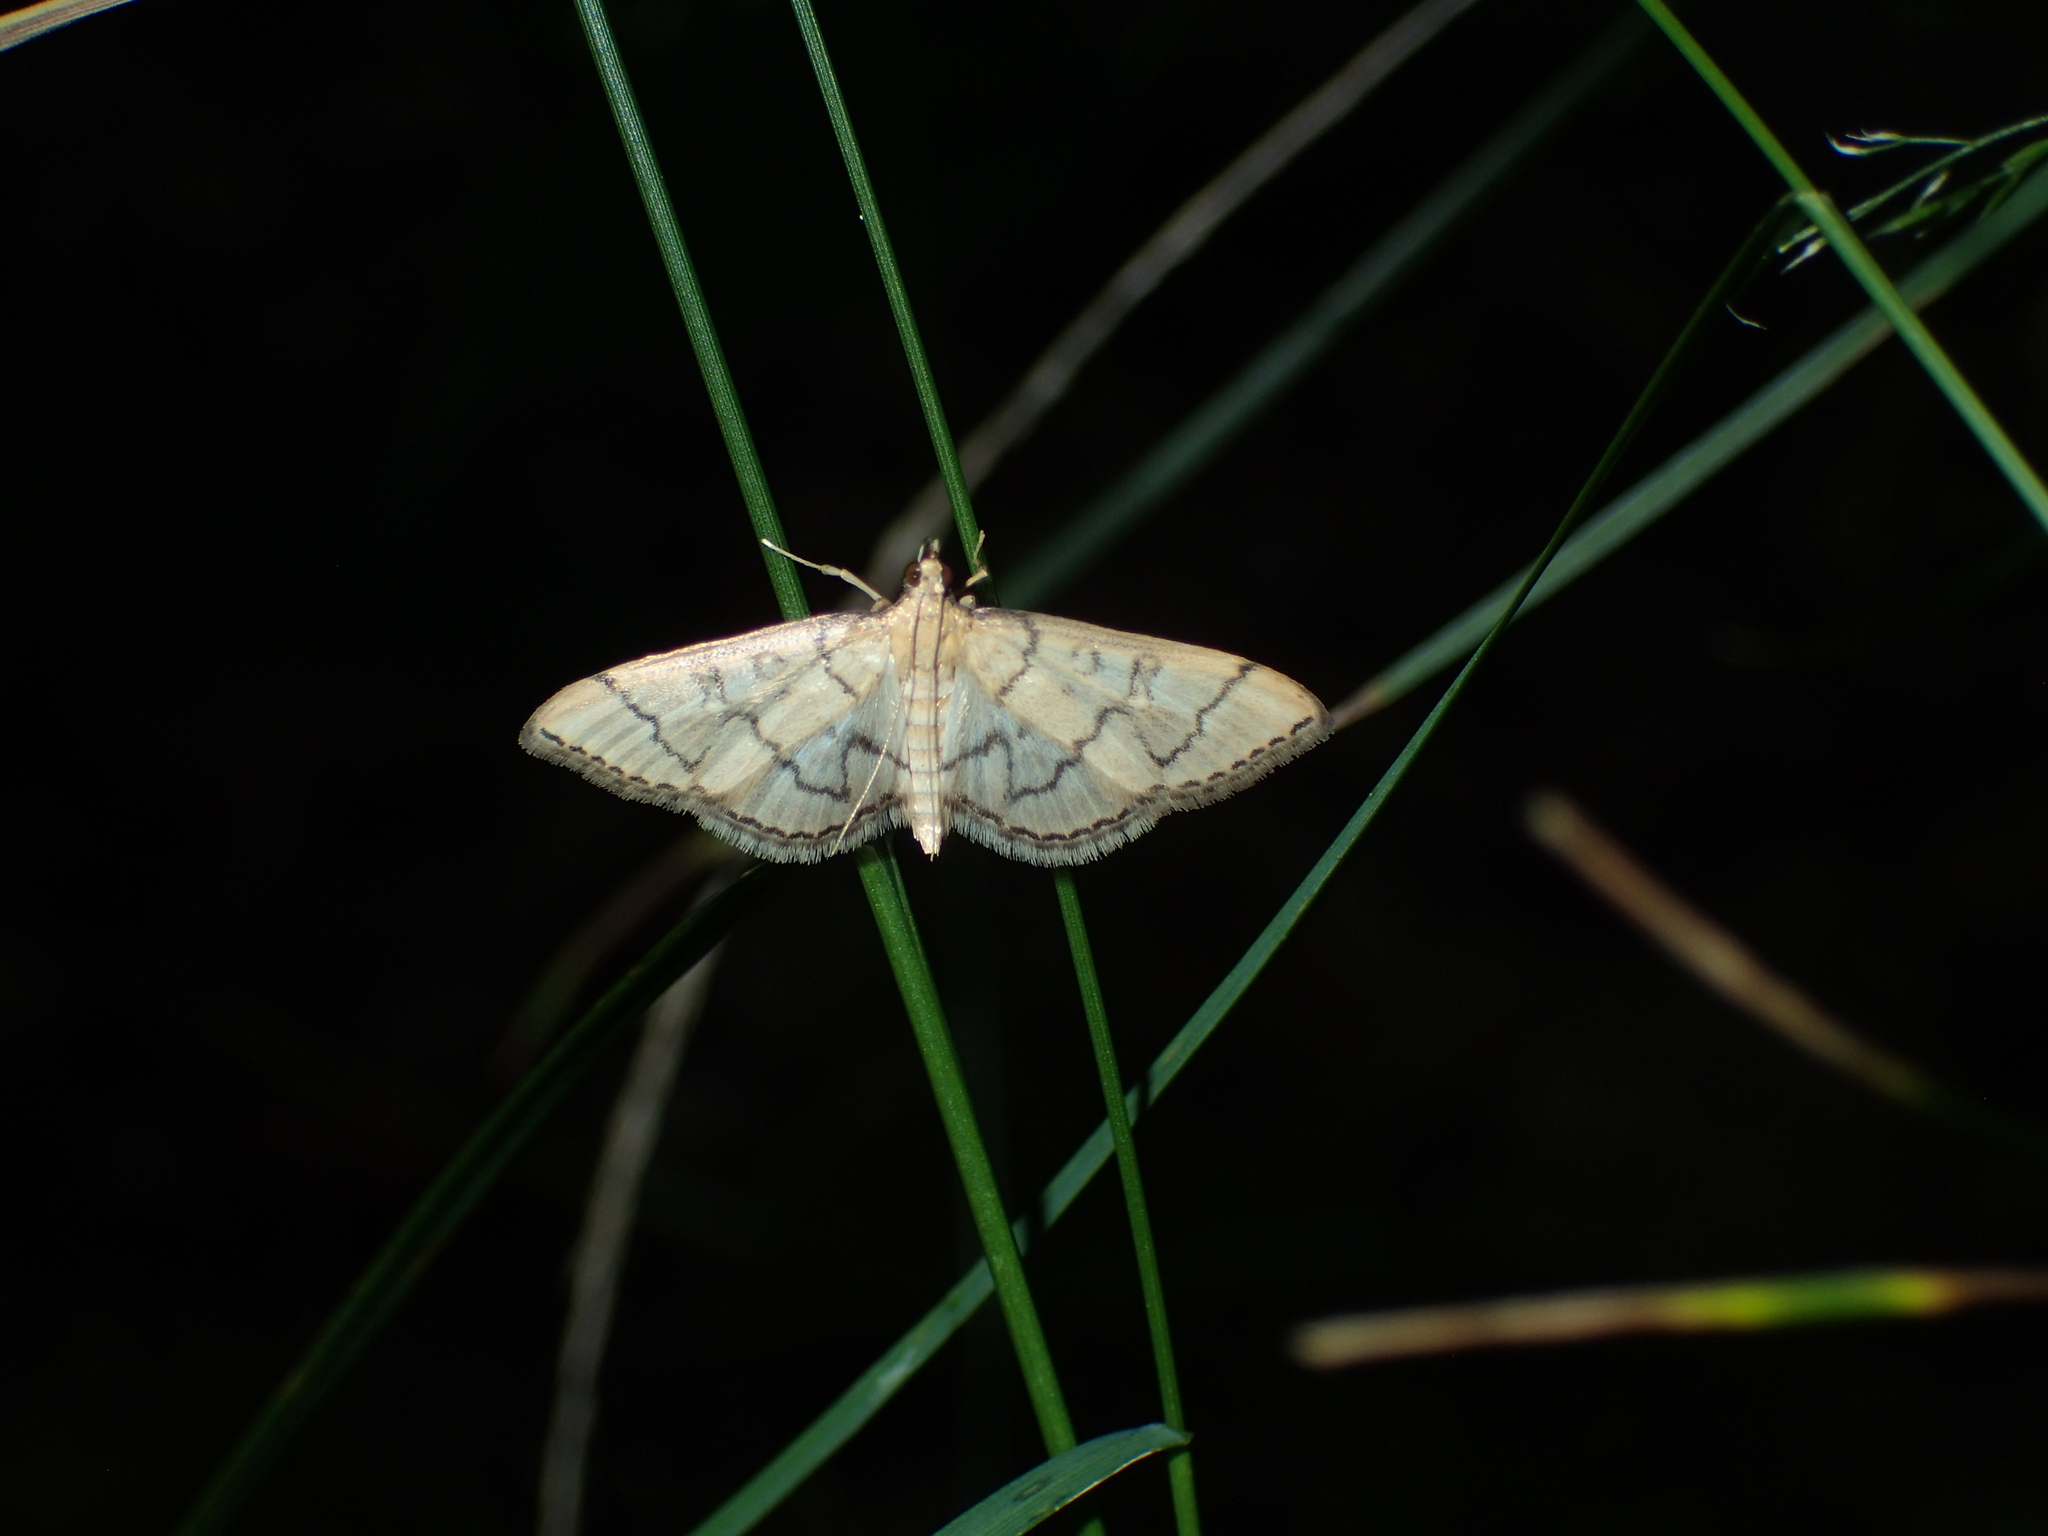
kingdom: Animalia
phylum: Arthropoda
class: Insecta
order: Lepidoptera
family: Crambidae
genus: Lamprosema
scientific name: Lamprosema Blepharomastix ranalis
